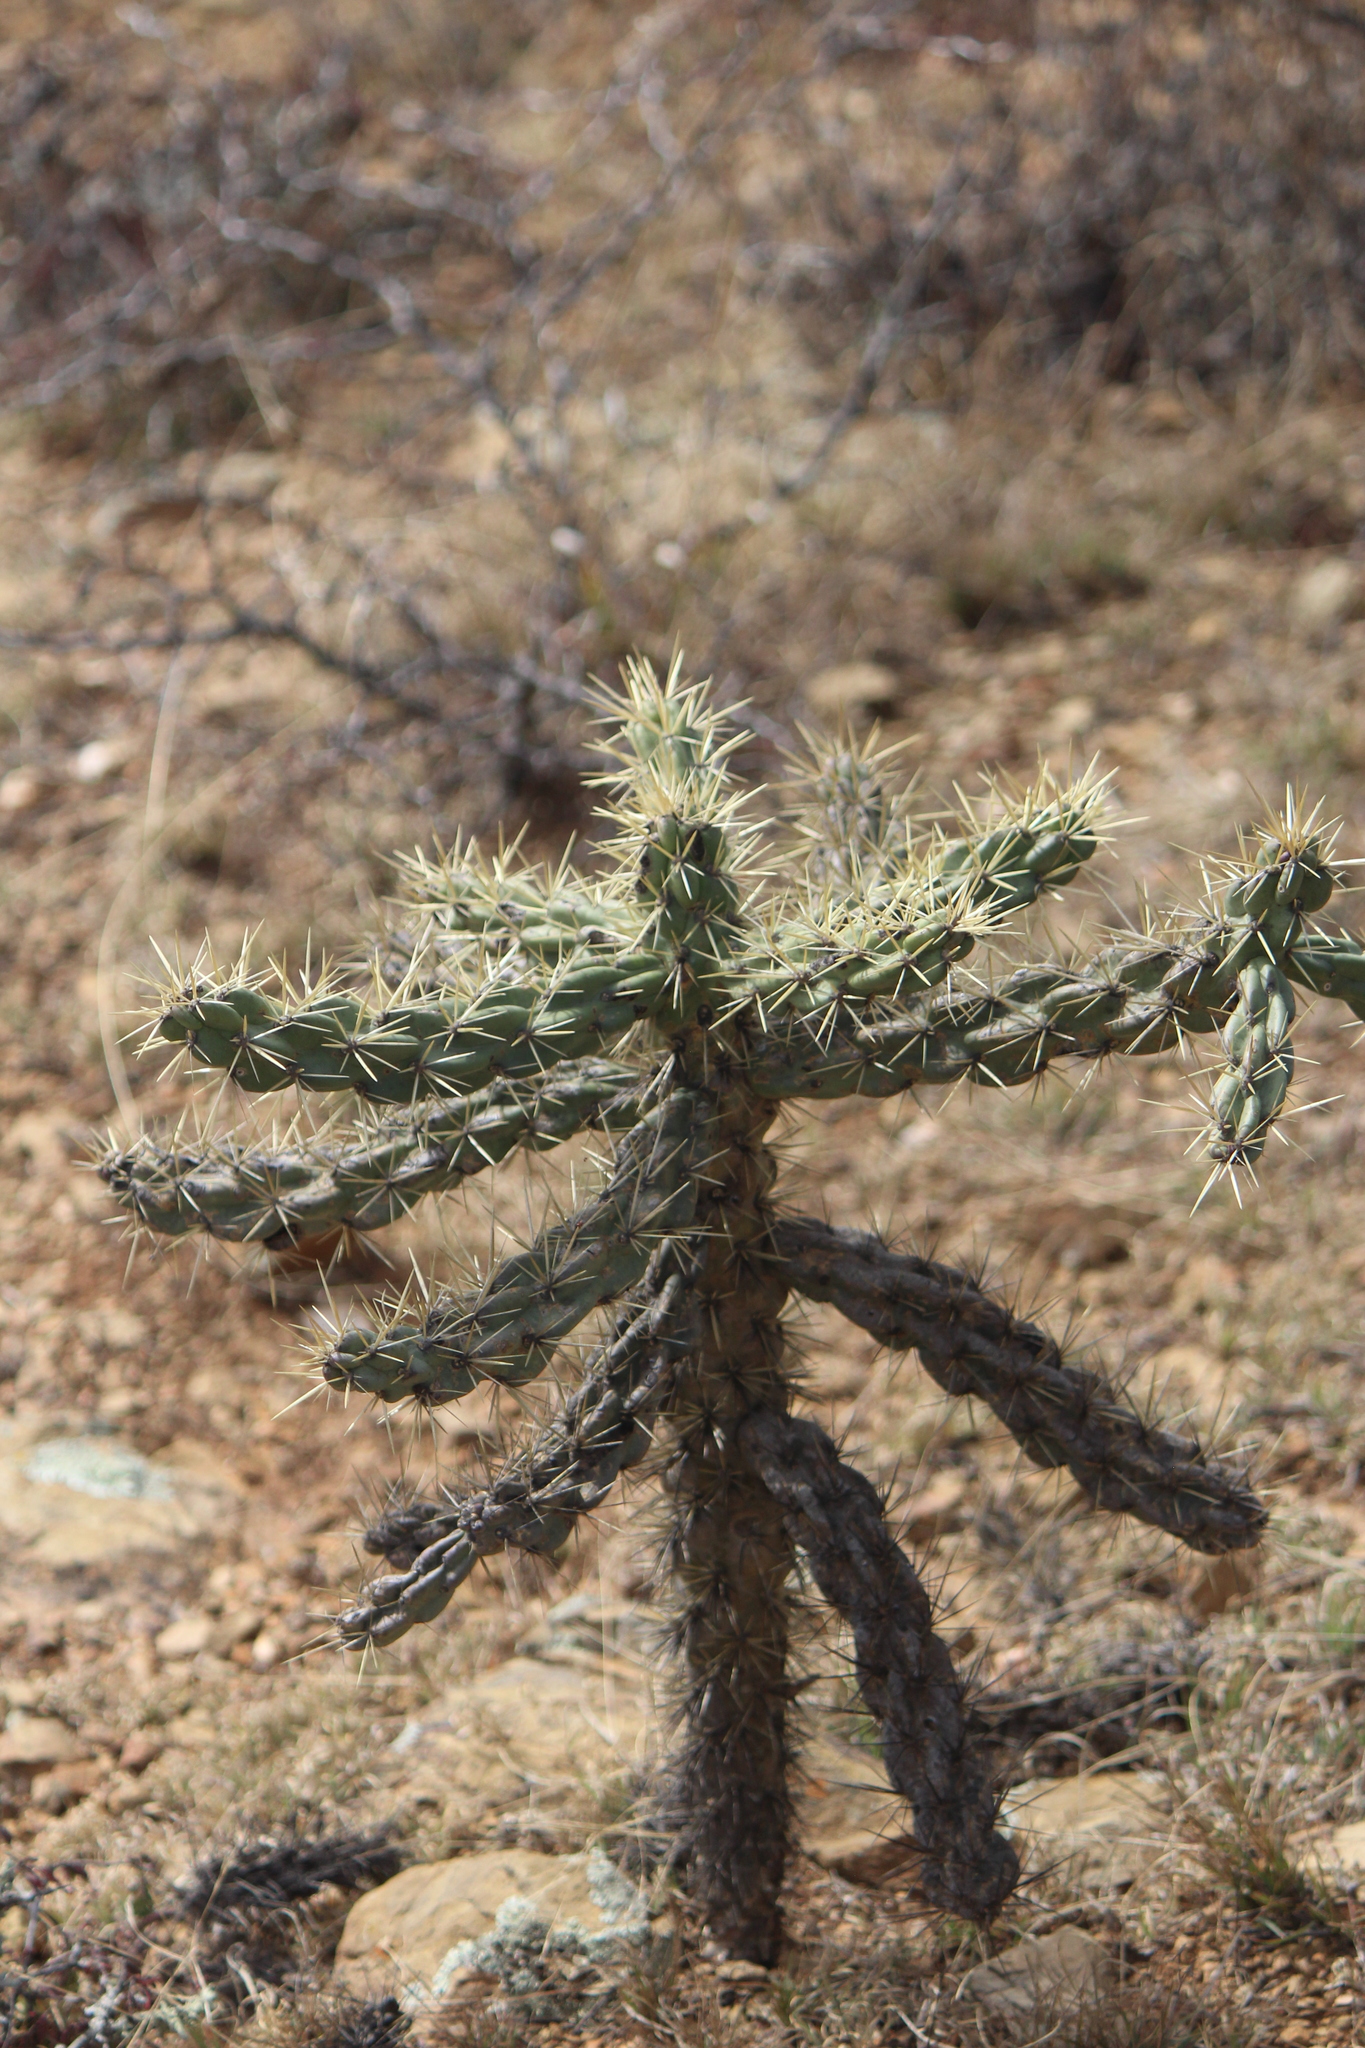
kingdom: Plantae
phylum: Tracheophyta
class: Magnoliopsida
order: Caryophyllales
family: Cactaceae
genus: Cylindropuntia
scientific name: Cylindropuntia imbricata
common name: Candelabrum cactus
